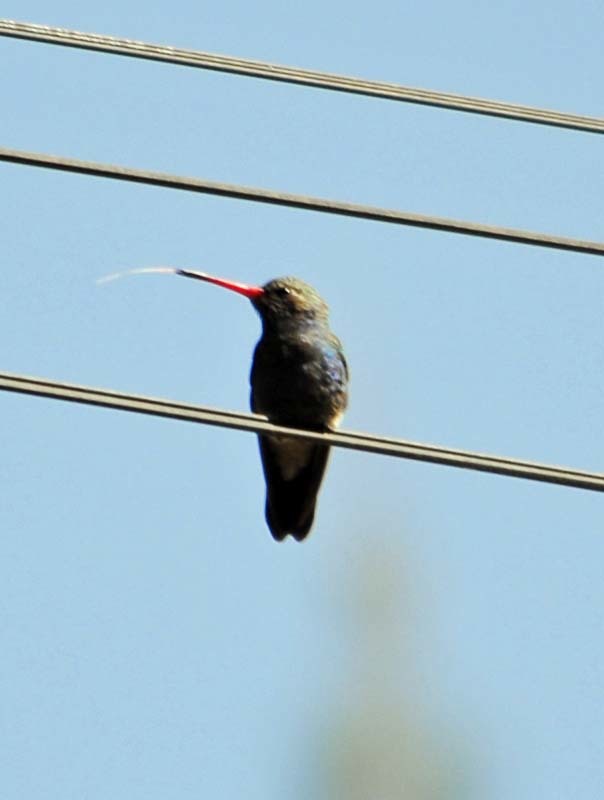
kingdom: Animalia
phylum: Chordata
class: Aves
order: Apodiformes
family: Trochilidae
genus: Cynanthus
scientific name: Cynanthus latirostris
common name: Broad-billed hummingbird
